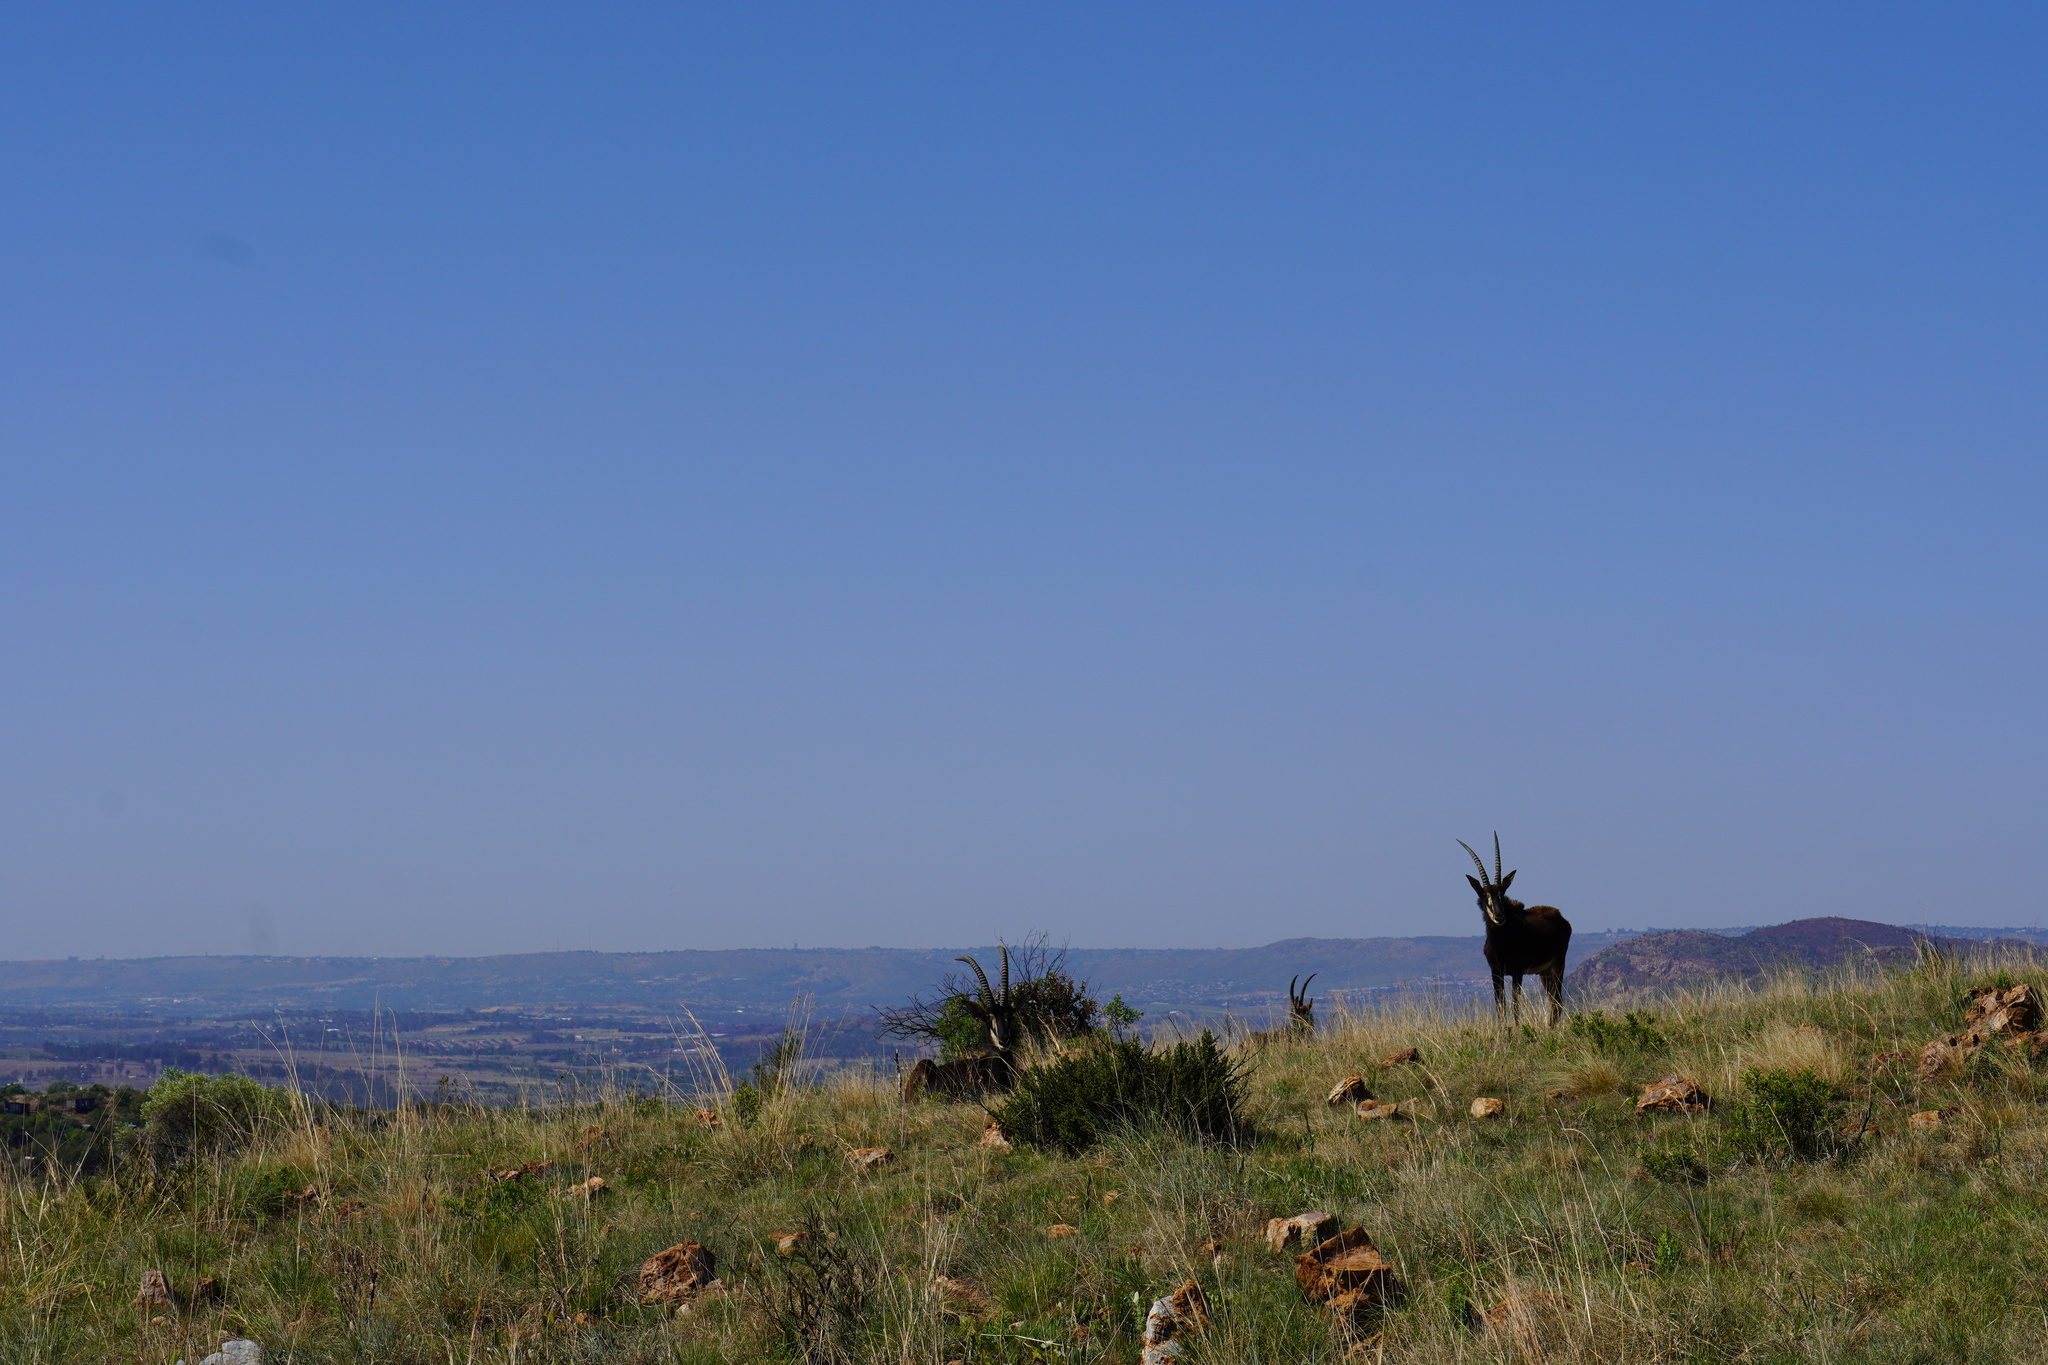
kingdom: Animalia
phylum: Chordata
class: Mammalia
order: Artiodactyla
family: Bovidae
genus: Hippotragus
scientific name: Hippotragus niger
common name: Sable antelope
